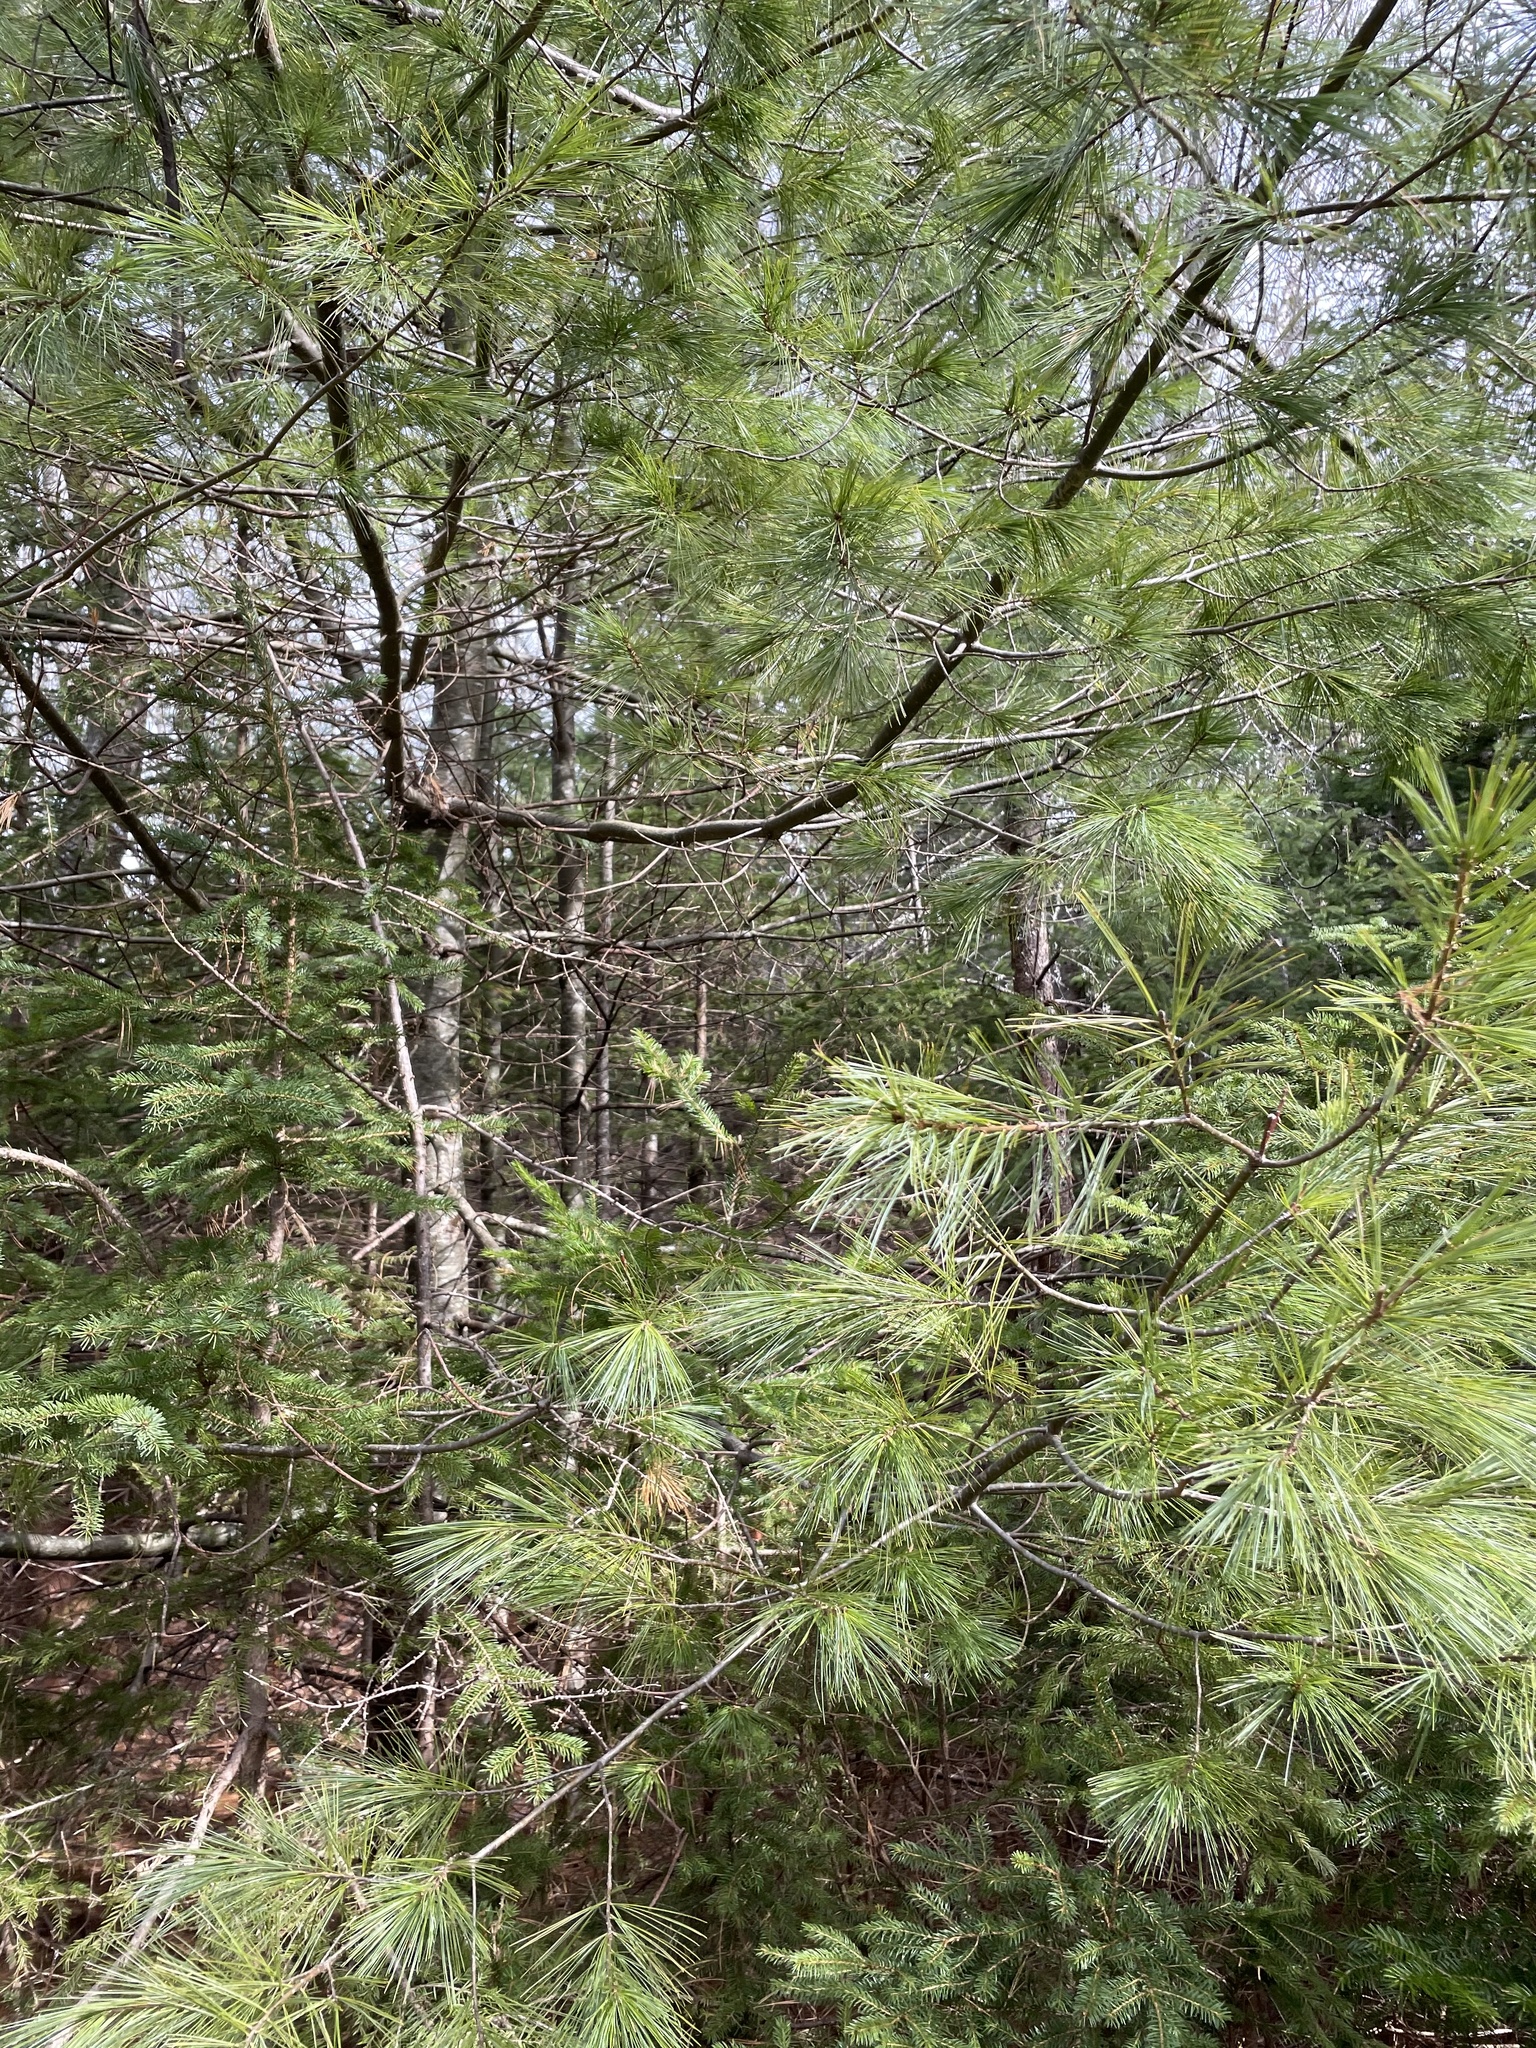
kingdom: Plantae
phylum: Tracheophyta
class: Pinopsida
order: Pinales
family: Pinaceae
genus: Pinus
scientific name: Pinus strobus
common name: Weymouth pine
